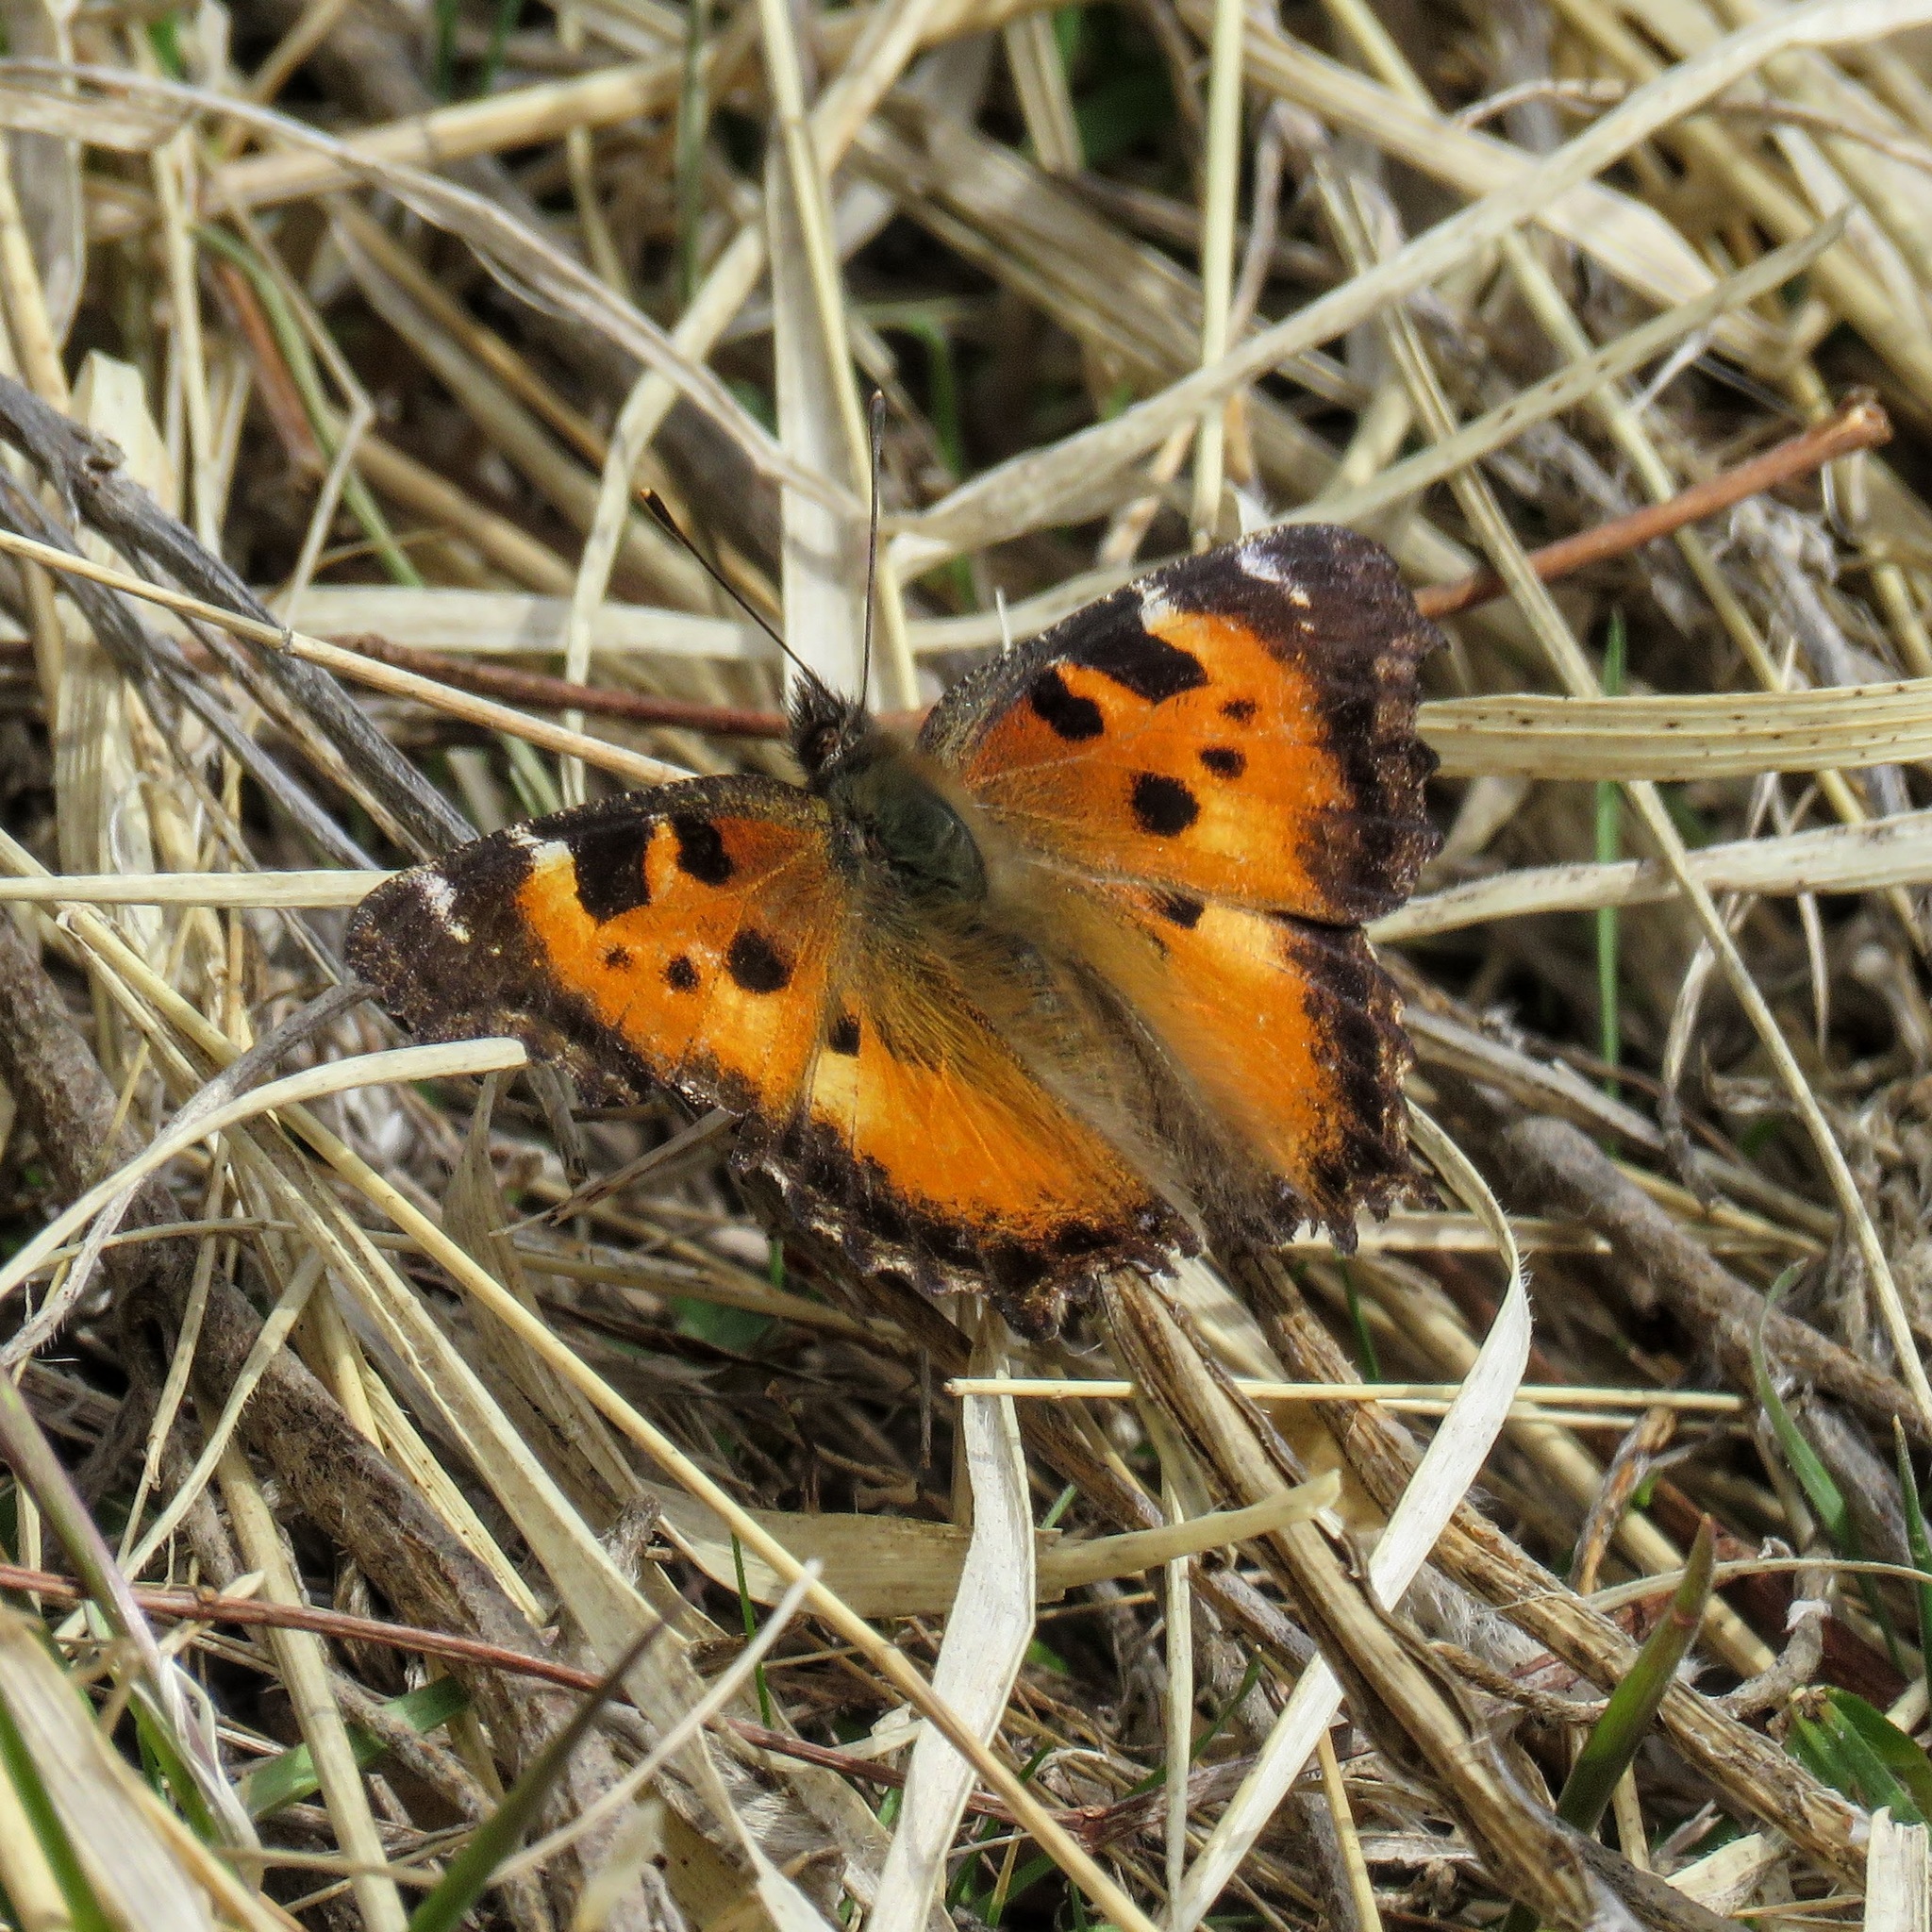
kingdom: Animalia
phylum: Arthropoda
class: Insecta
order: Lepidoptera
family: Nymphalidae
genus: Nymphalis
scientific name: Nymphalis californica
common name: California tortoiseshell
